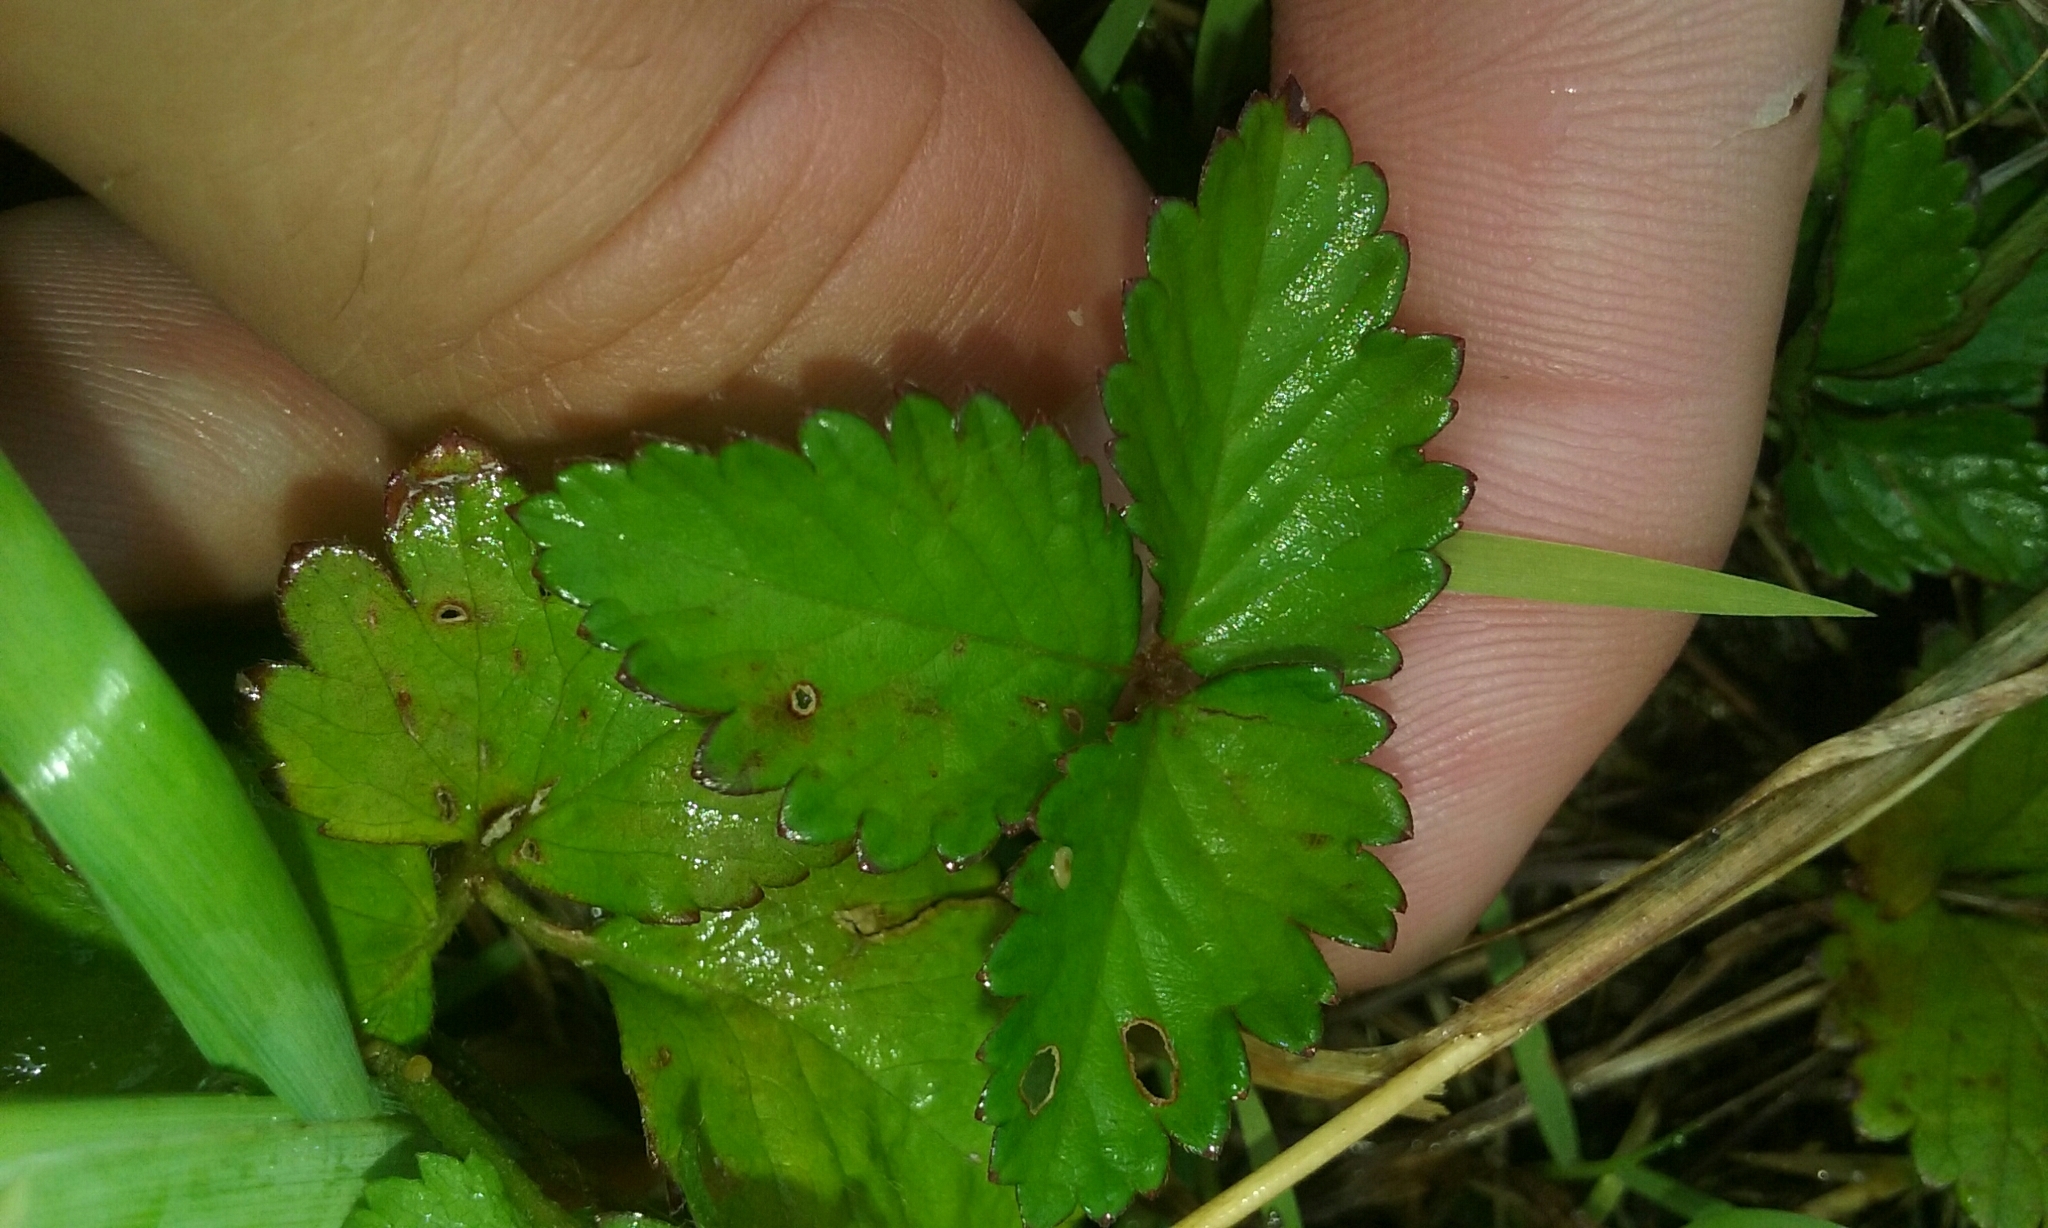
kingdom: Plantae
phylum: Tracheophyta
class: Magnoliopsida
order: Rosales
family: Rosaceae
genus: Potentilla
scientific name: Potentilla indica
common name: Yellow-flowered strawberry
